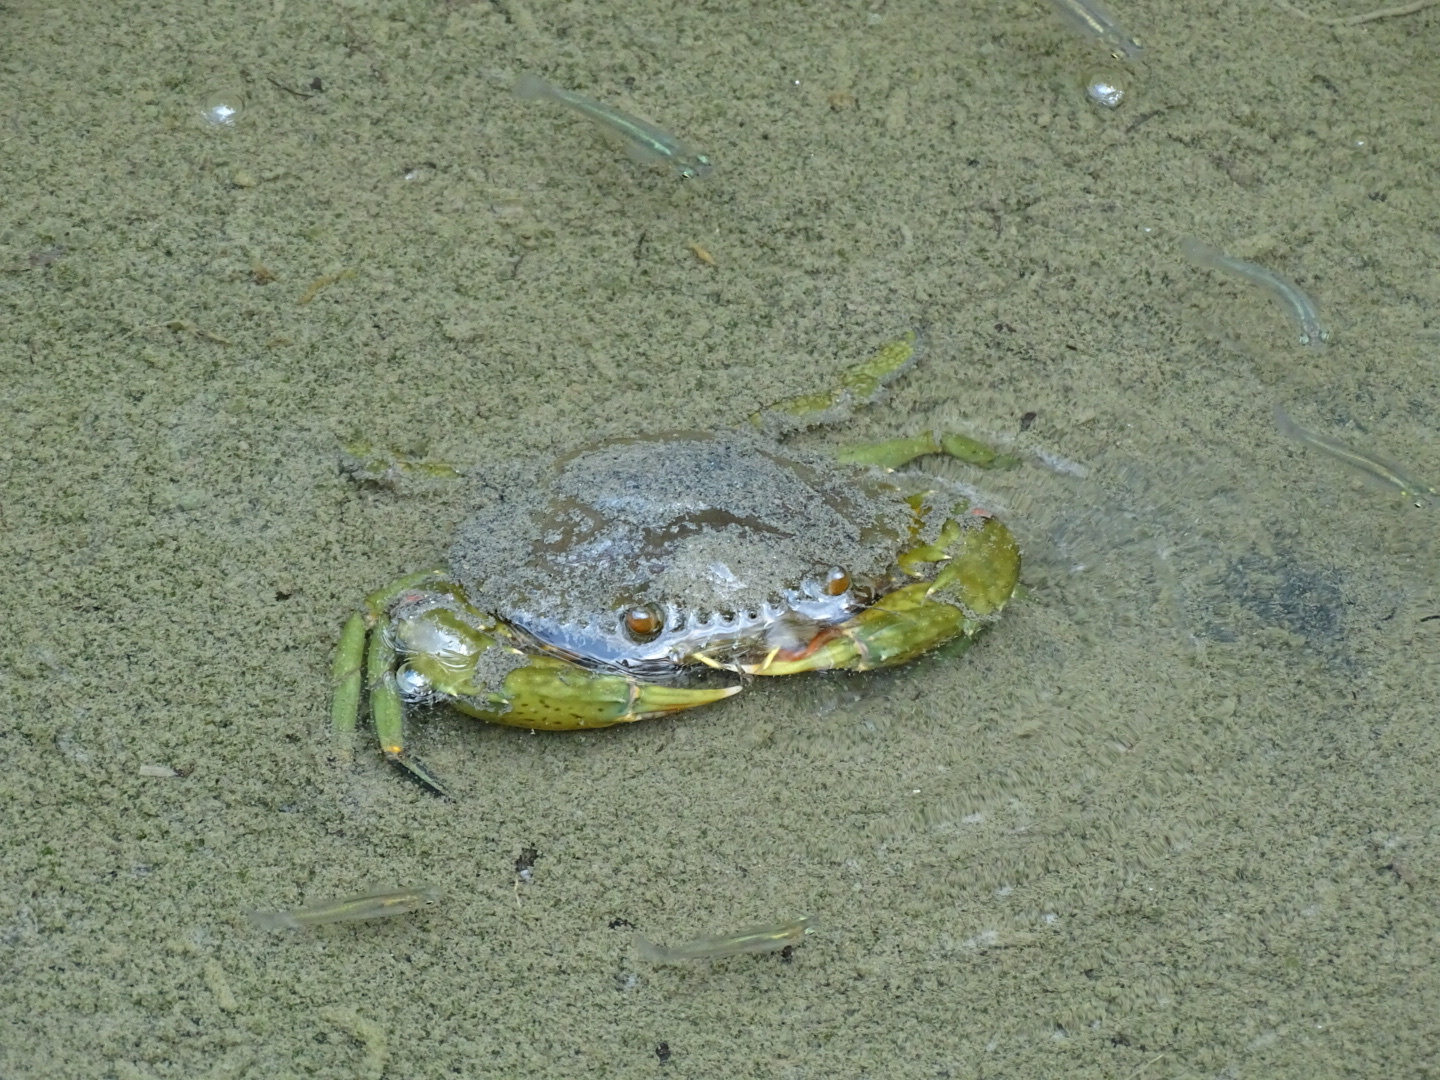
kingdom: Animalia
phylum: Arthropoda
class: Malacostraca
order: Decapoda
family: Portunidae
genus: Scylla
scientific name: Scylla paramamosain
